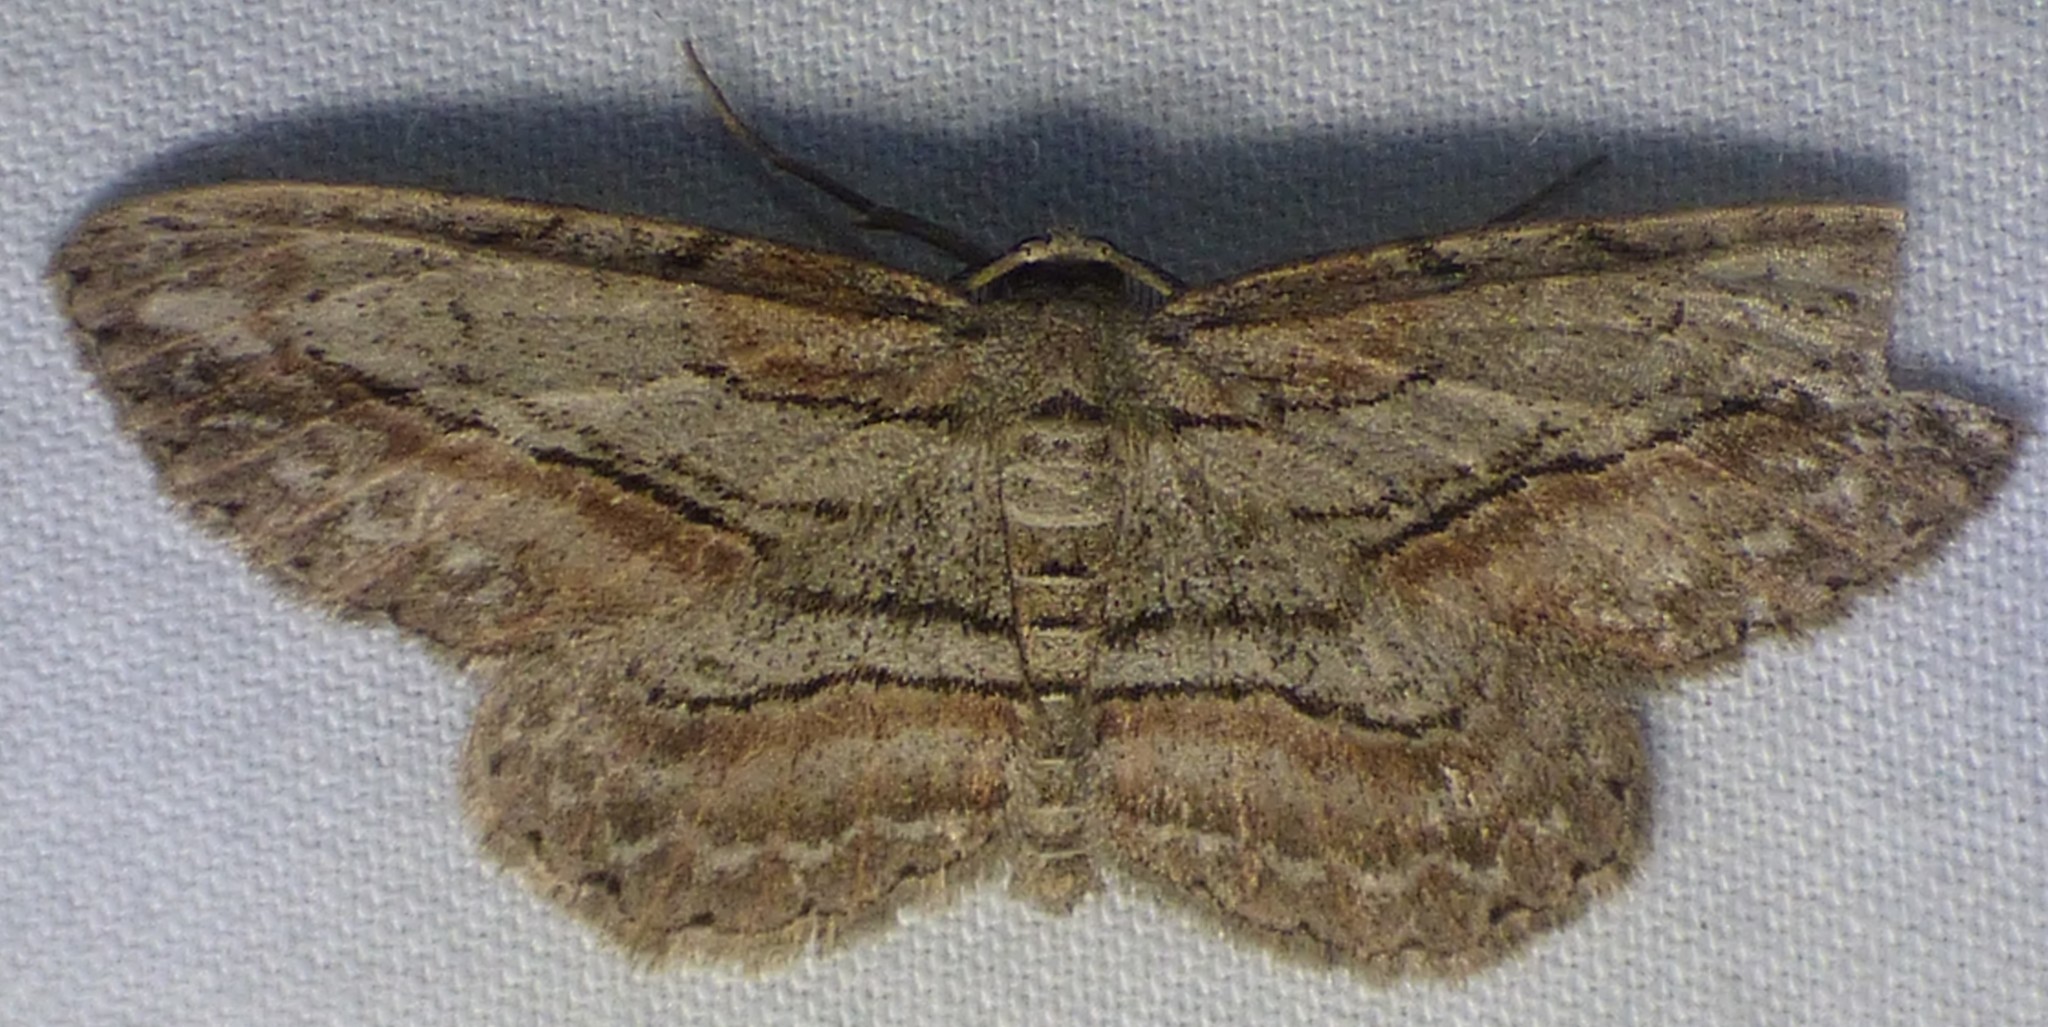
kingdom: Animalia
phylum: Arthropoda
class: Insecta
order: Lepidoptera
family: Geometridae
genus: Glena
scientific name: Glena plumosaria
